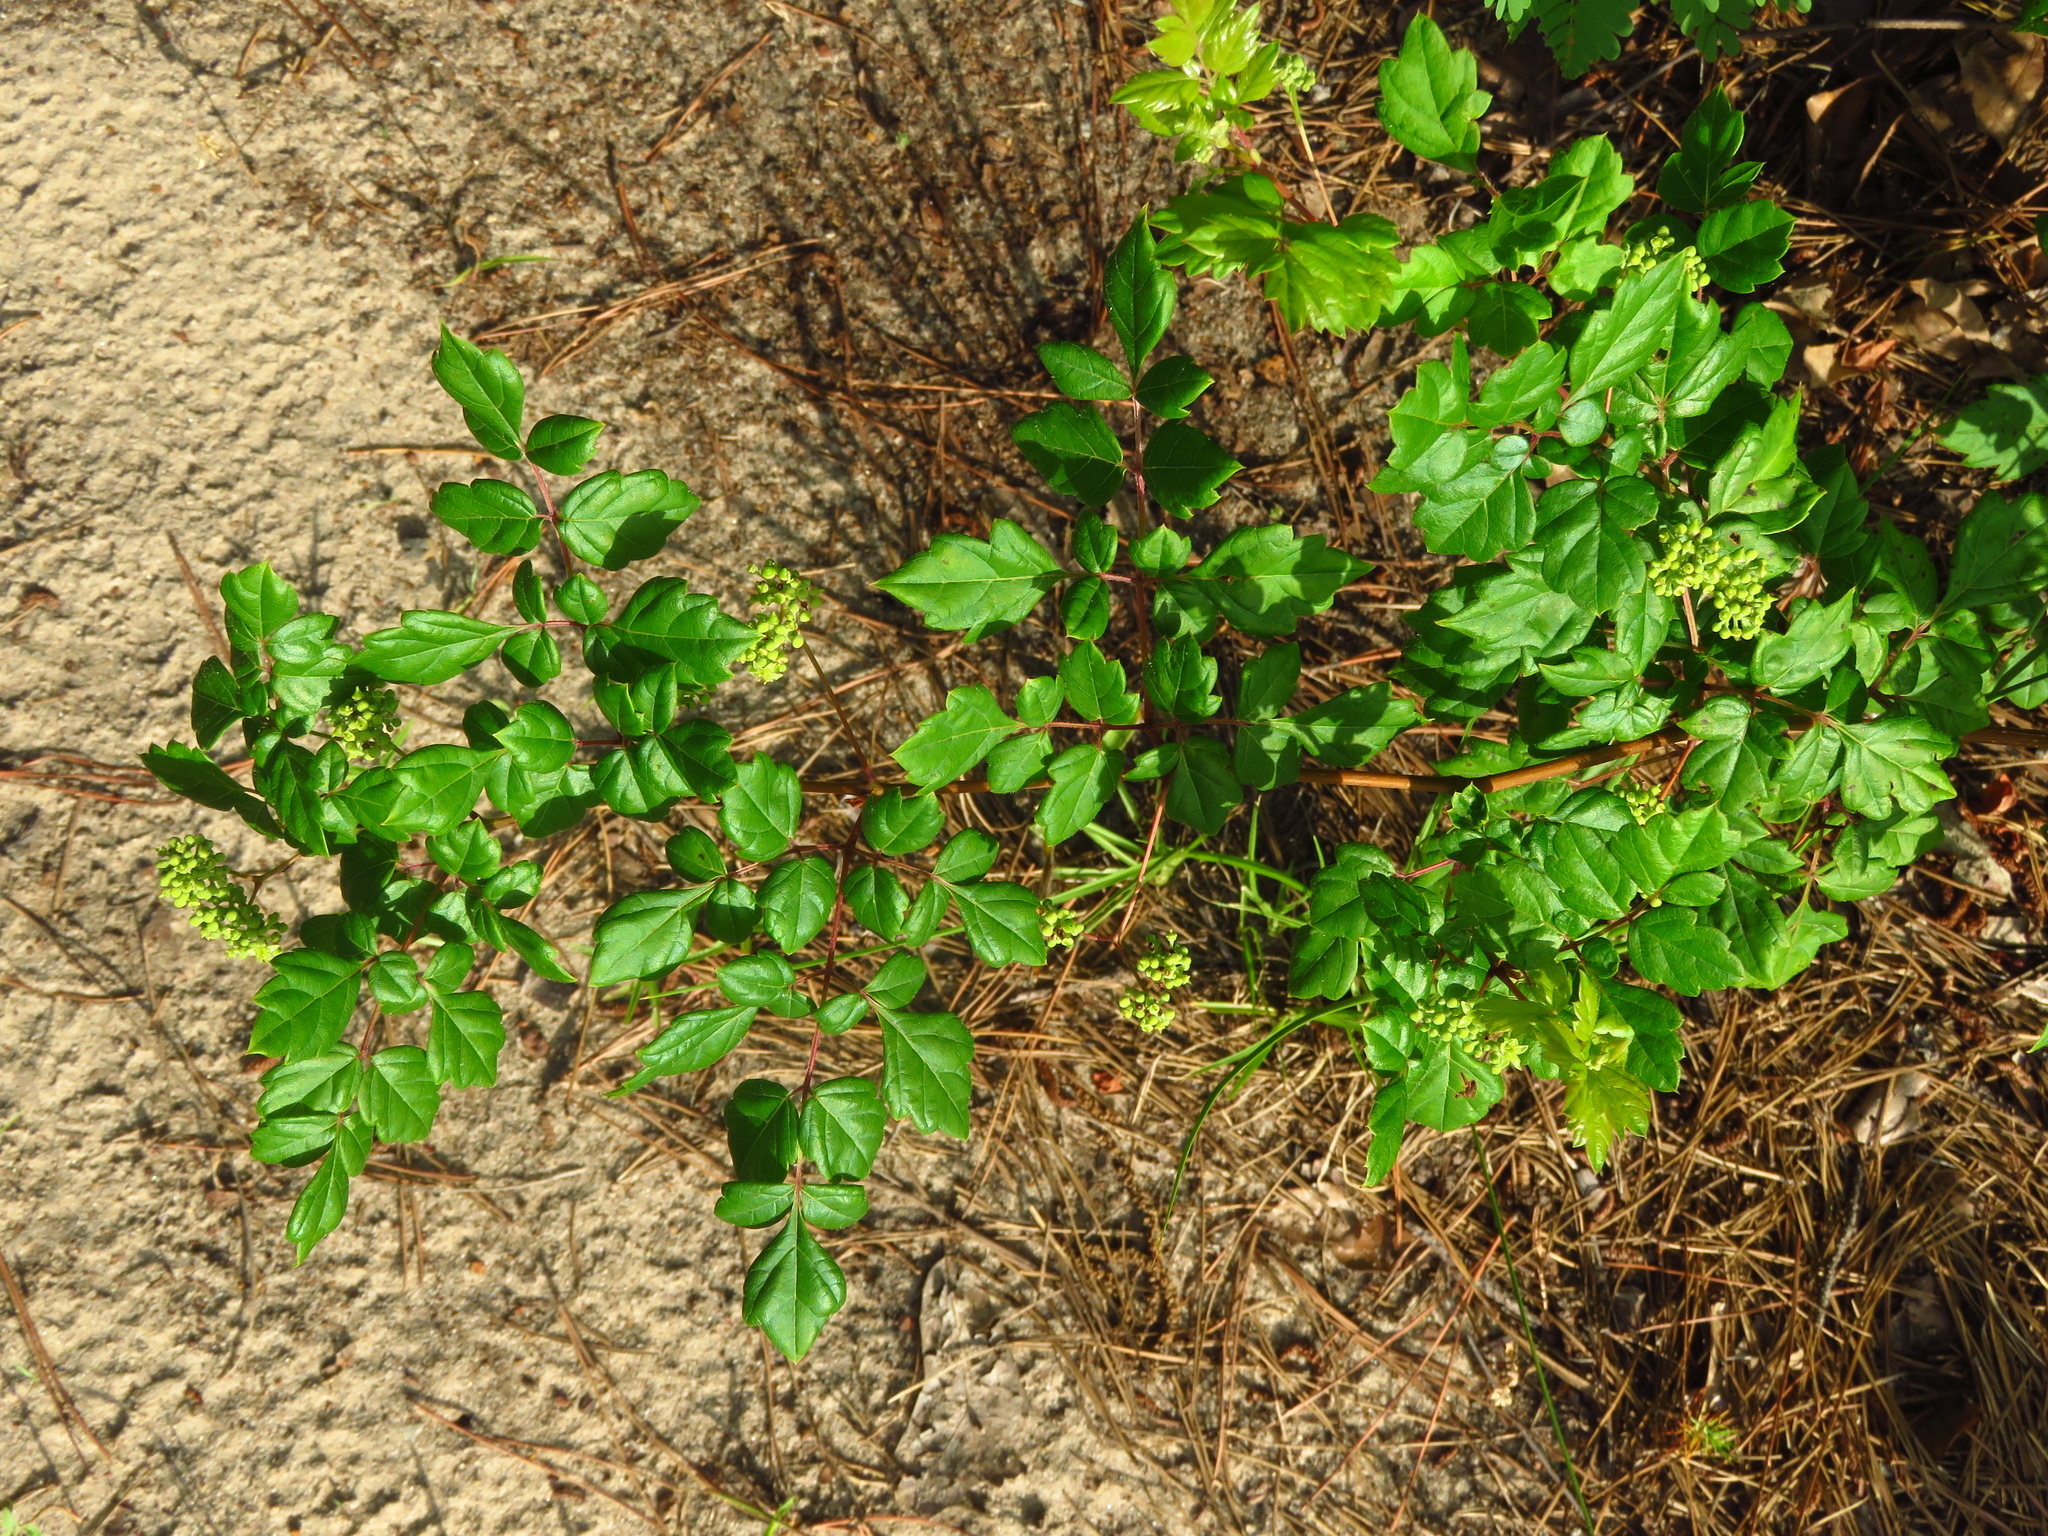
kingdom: Plantae
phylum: Tracheophyta
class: Magnoliopsida
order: Vitales
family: Vitaceae
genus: Nekemias
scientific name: Nekemias arborea
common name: Peppervine
